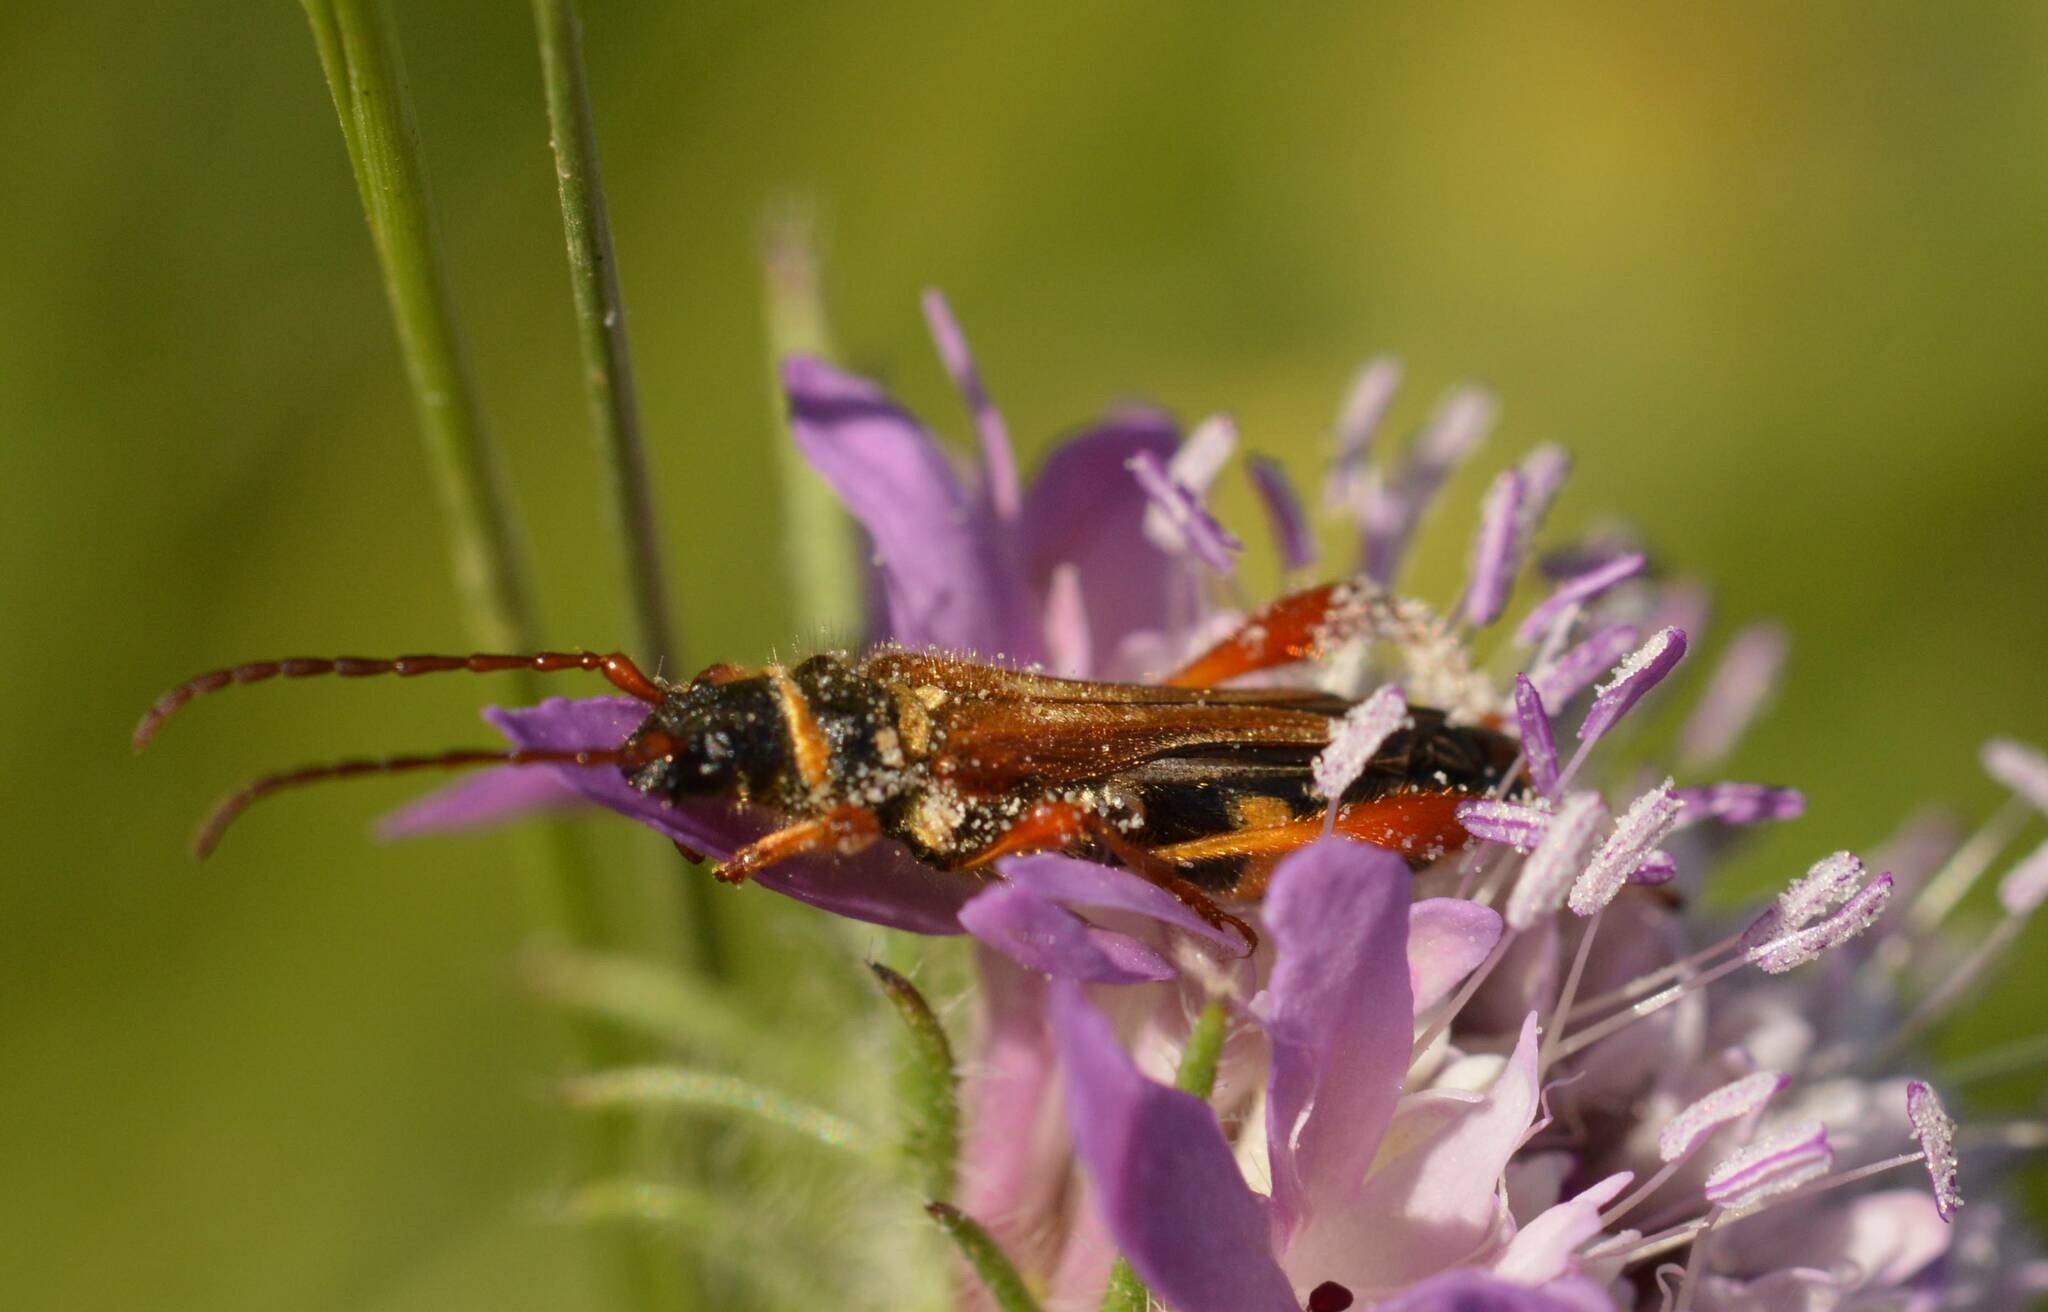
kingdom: Animalia
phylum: Arthropoda
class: Insecta
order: Coleoptera
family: Cerambycidae
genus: Stenopterus
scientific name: Stenopterus mauritanicus
